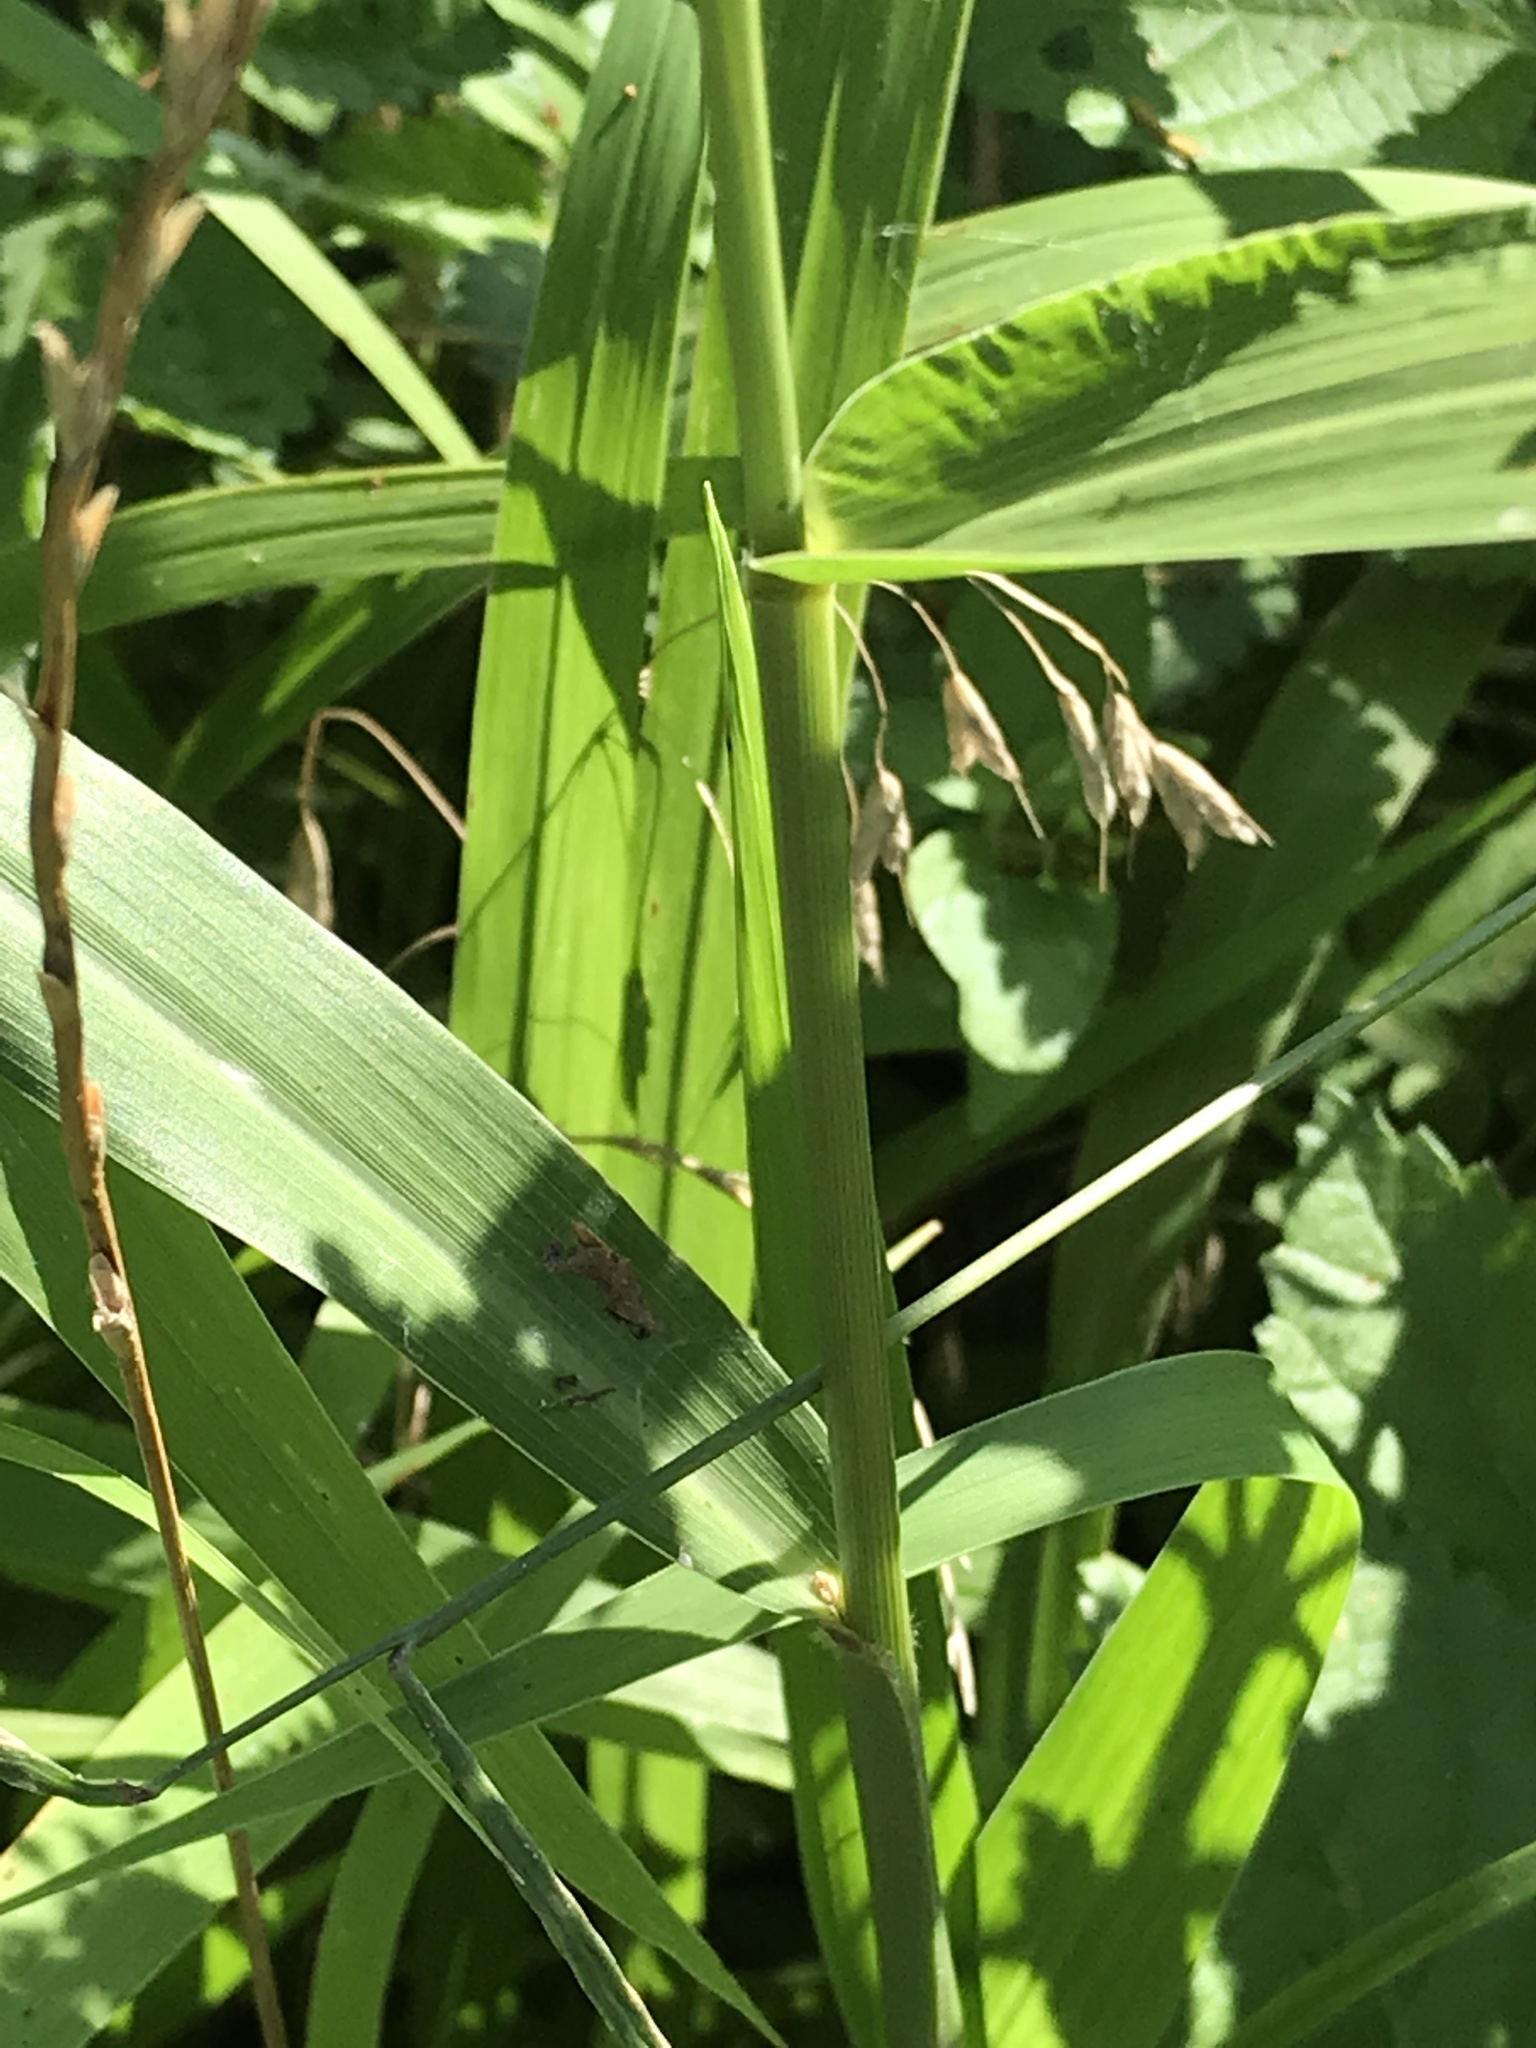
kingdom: Plantae
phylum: Tracheophyta
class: Liliopsida
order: Poales
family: Poaceae
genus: Setaria
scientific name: Setaria scheelei
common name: Southwestern bristle grass
